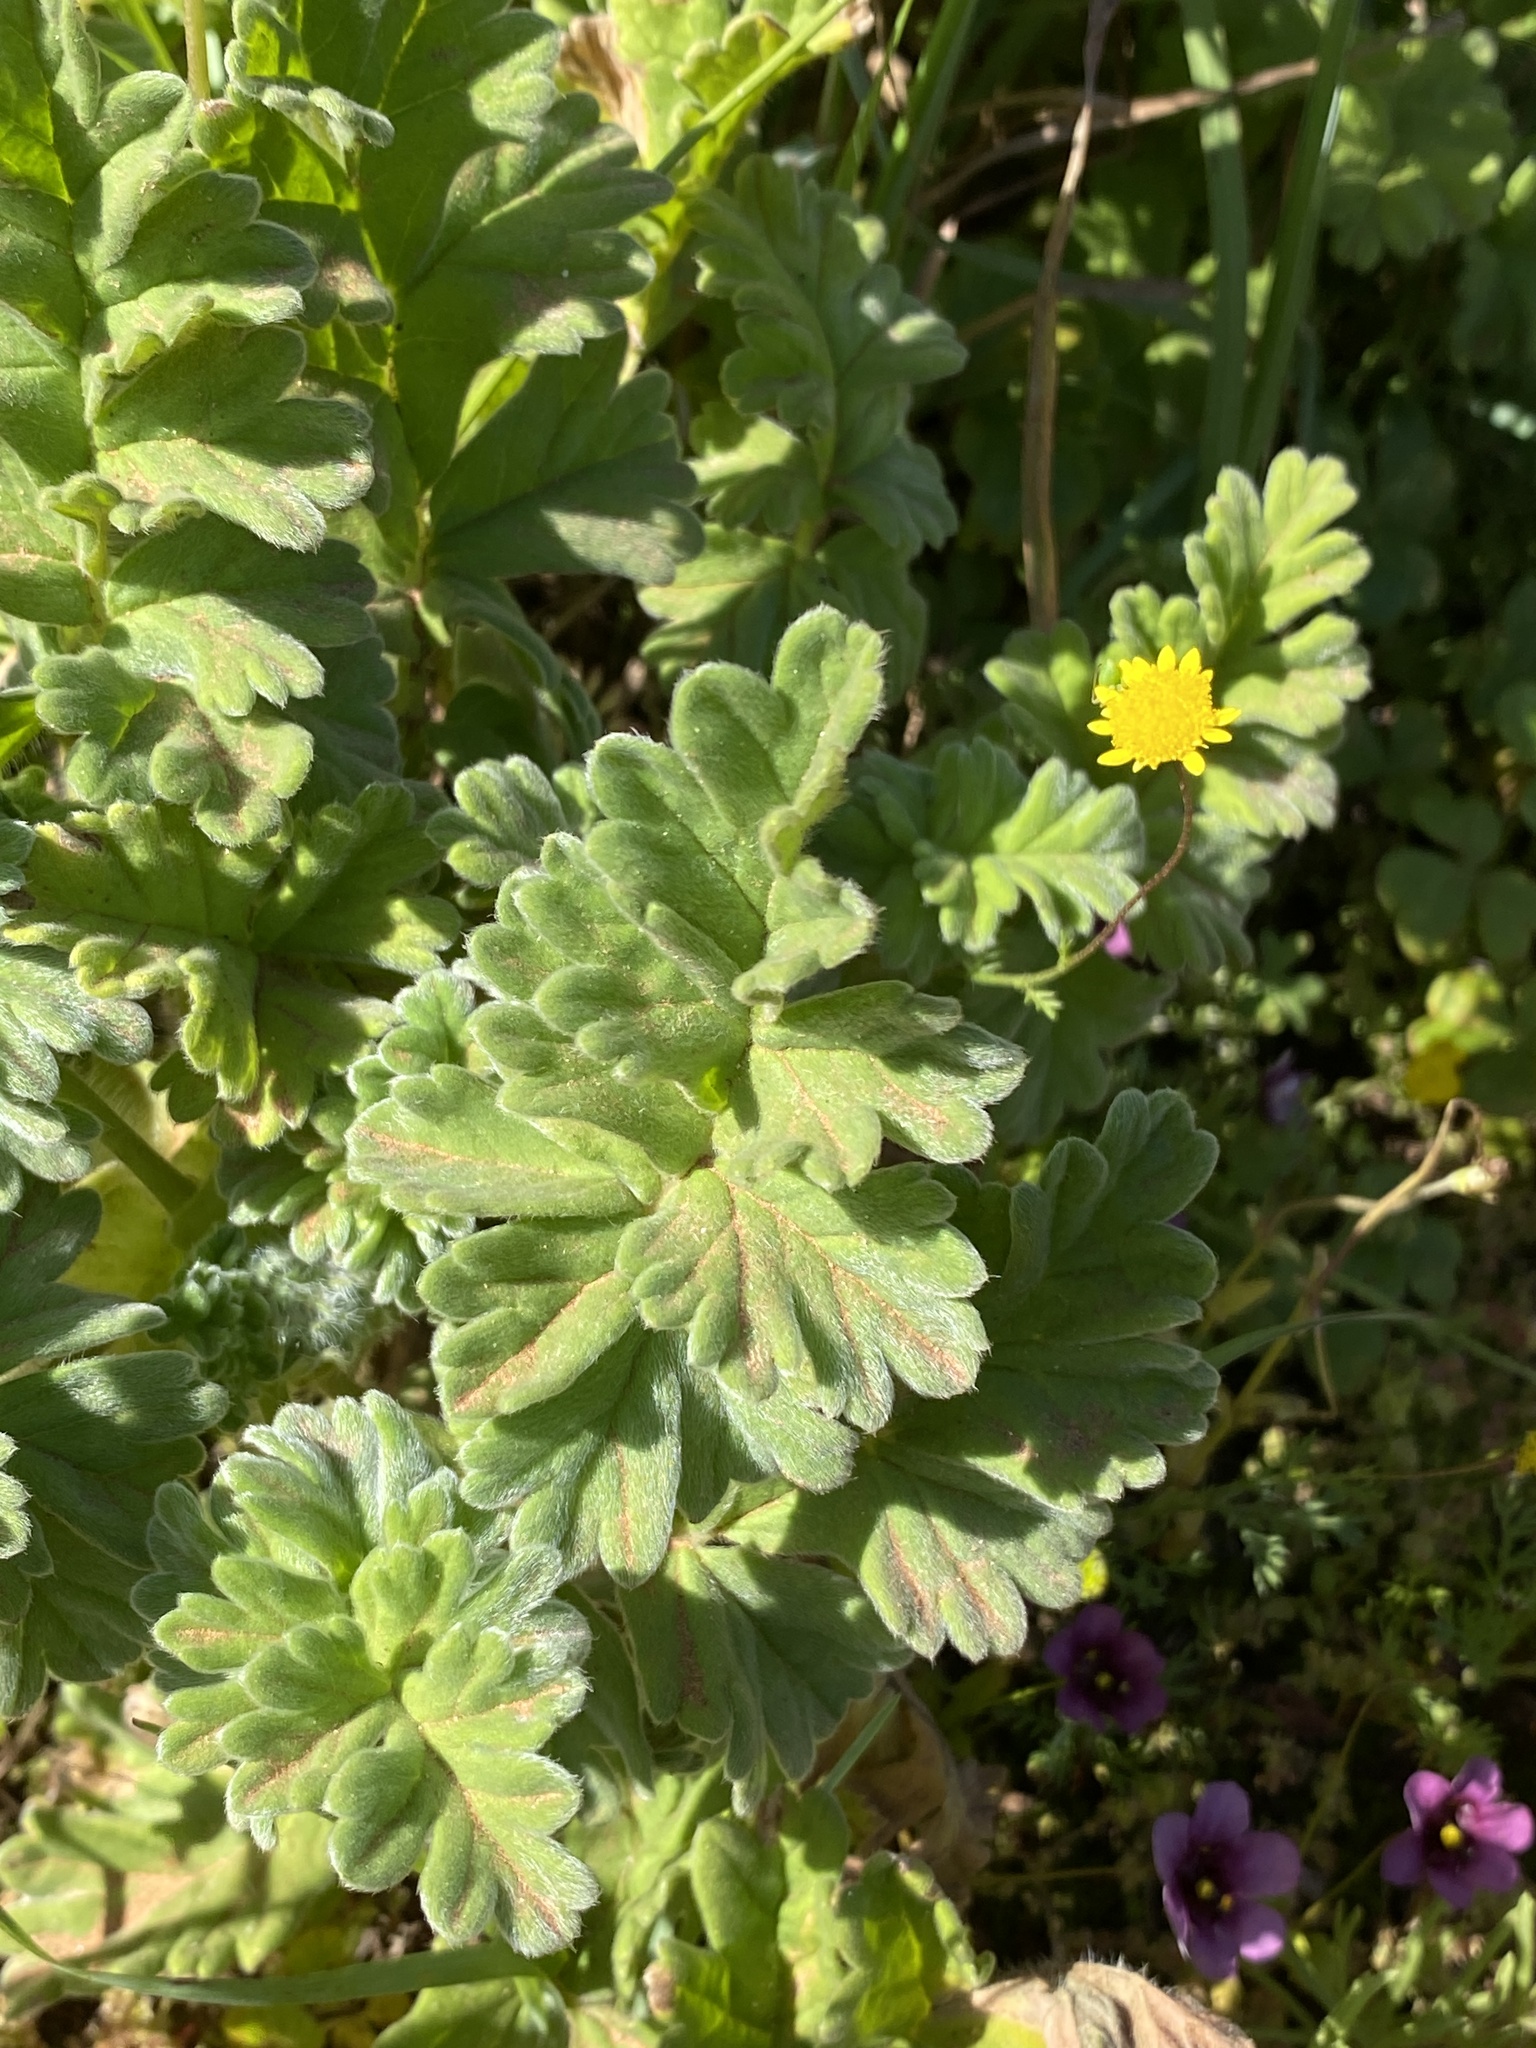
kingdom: Plantae
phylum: Tracheophyta
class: Magnoliopsida
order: Geraniales
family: Geraniaceae
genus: Pelargonium
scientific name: Pelargonium fulgidum
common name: Celandine-leaf pelargonium
